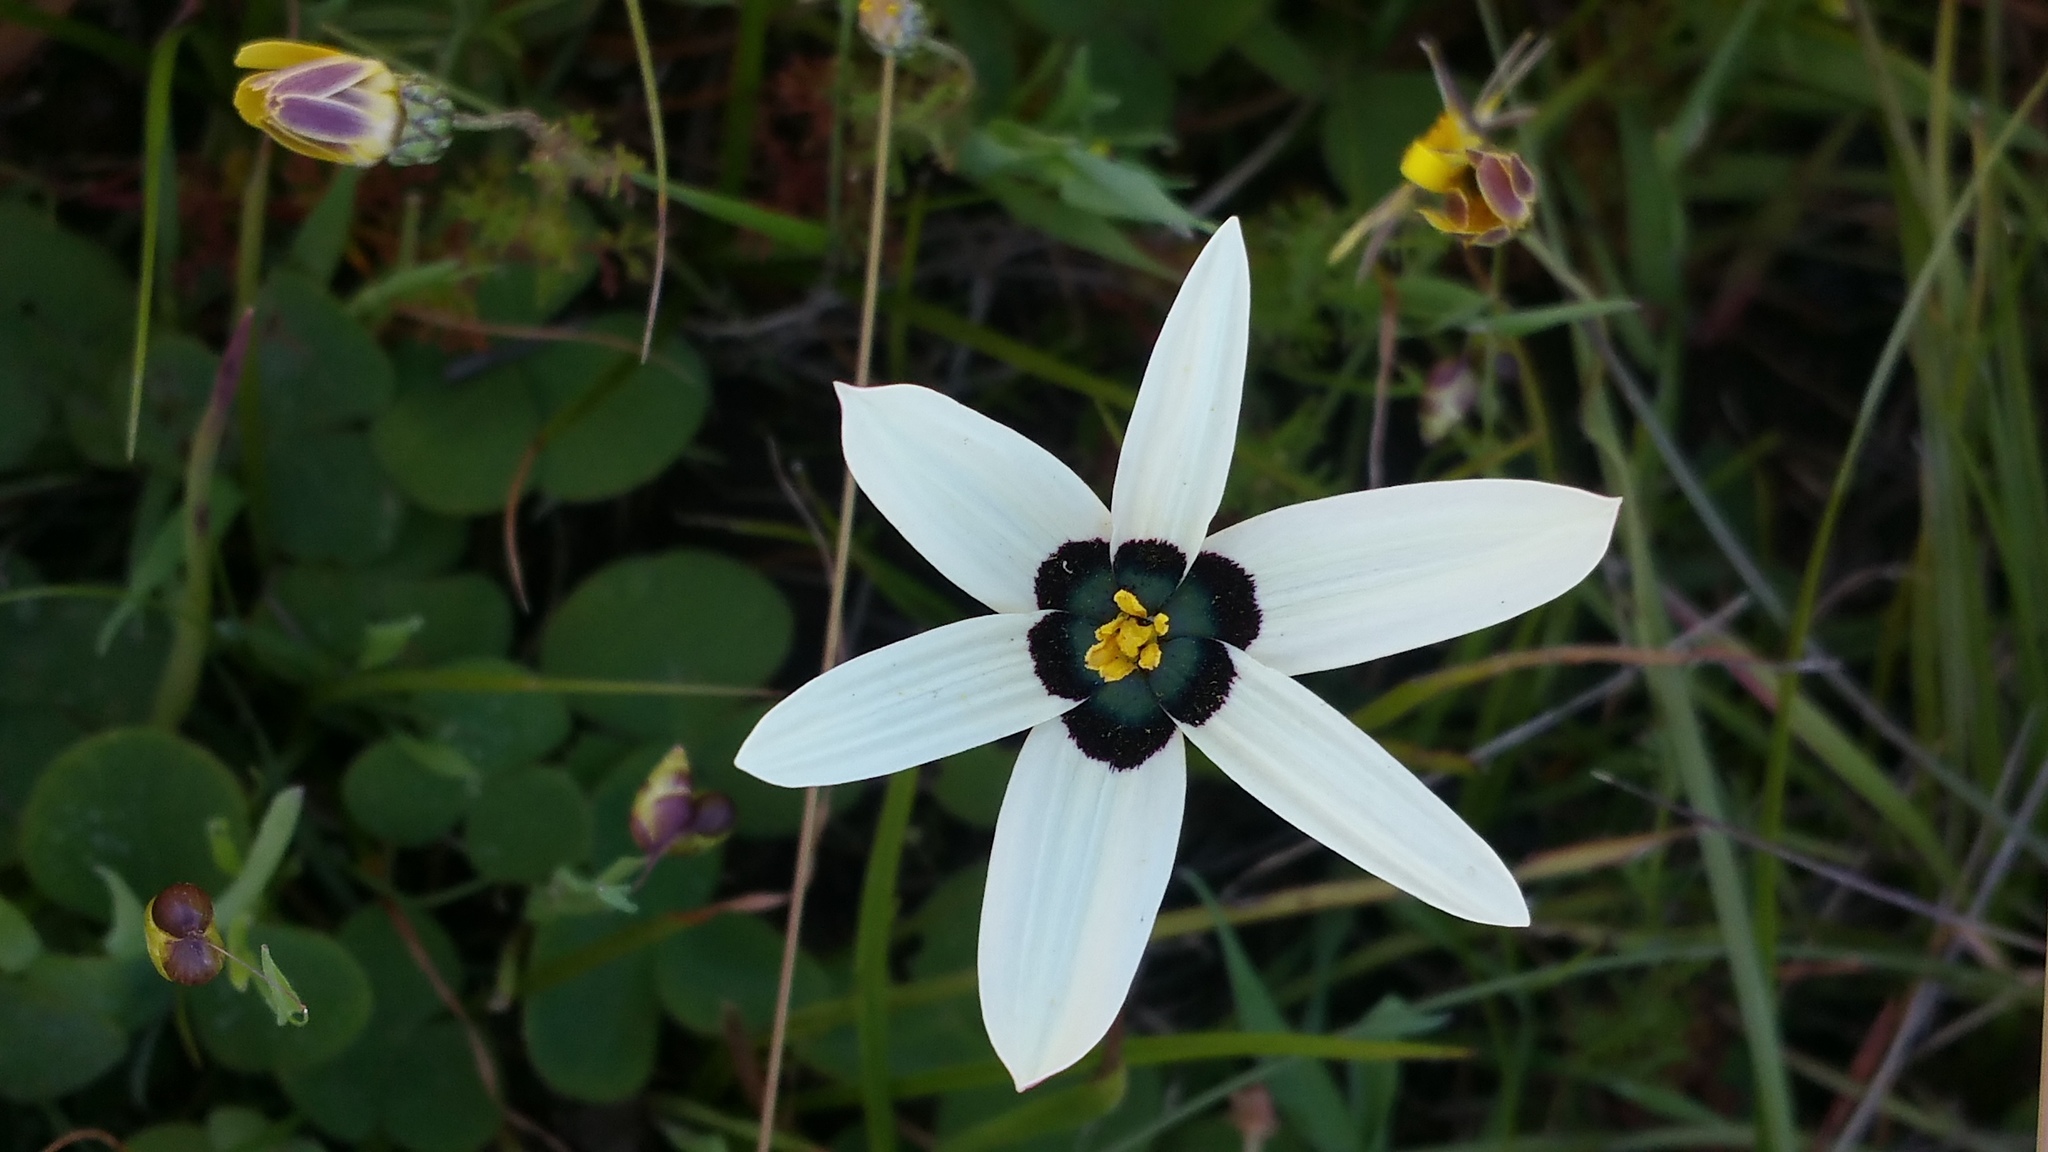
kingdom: Plantae
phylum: Tracheophyta
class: Liliopsida
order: Asparagales
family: Hypoxidaceae
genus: Pauridia
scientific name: Pauridia capensis
